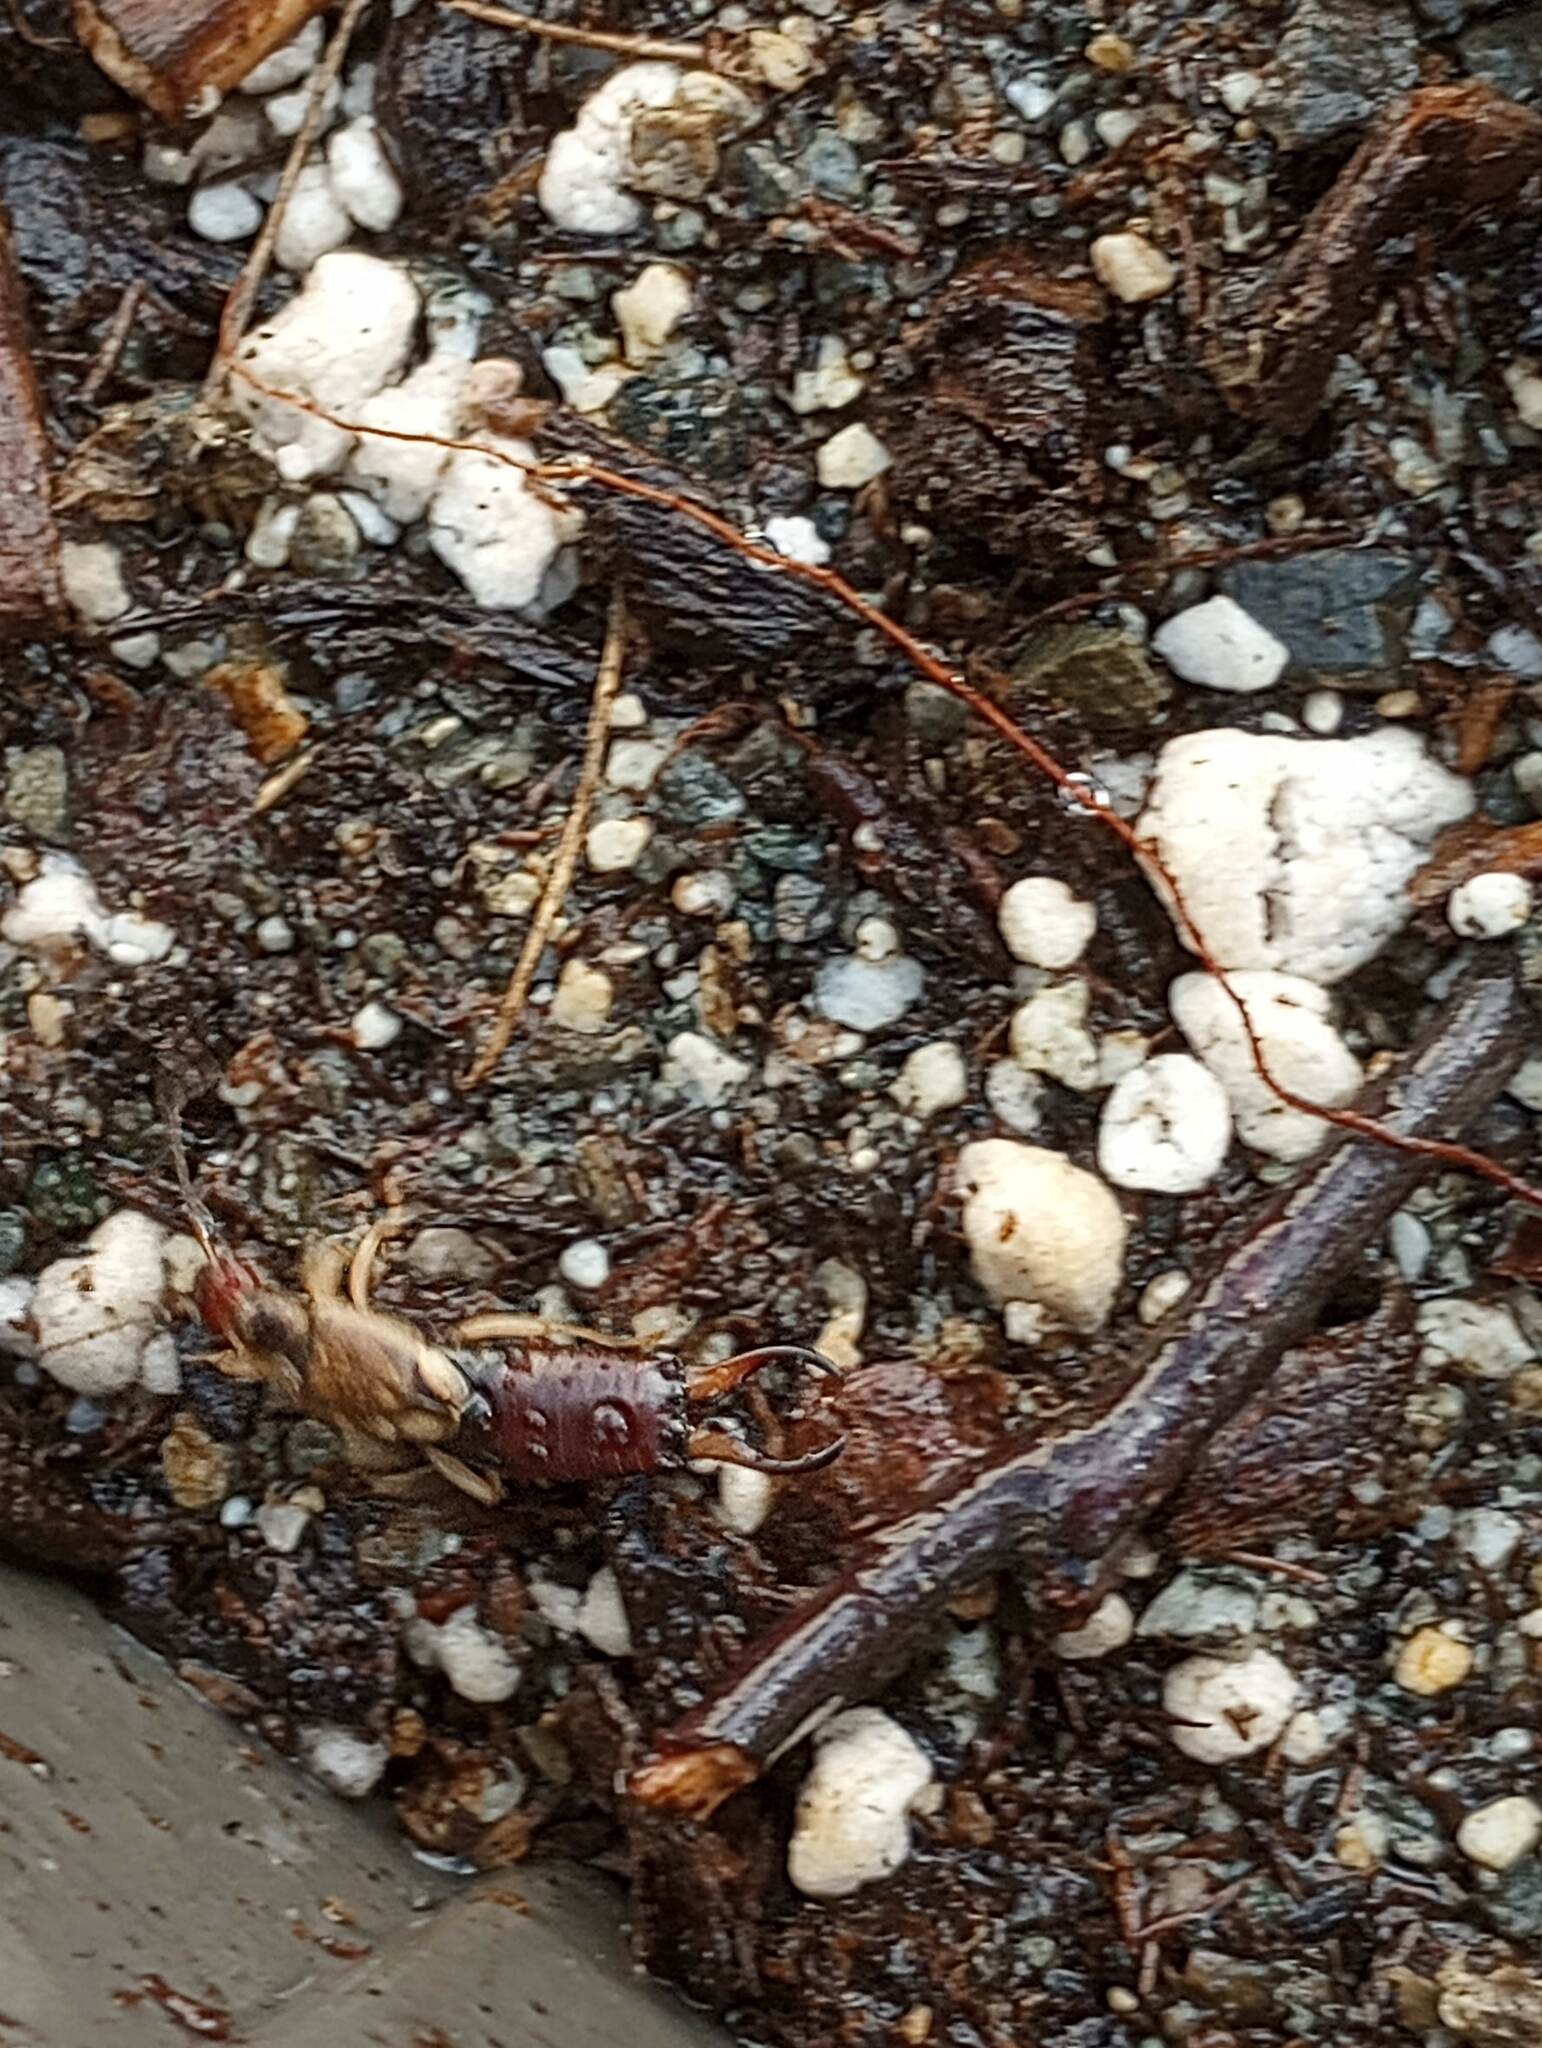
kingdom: Animalia
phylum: Arthropoda
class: Insecta
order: Dermaptera
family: Forficulidae
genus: Forficula
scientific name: Forficula
